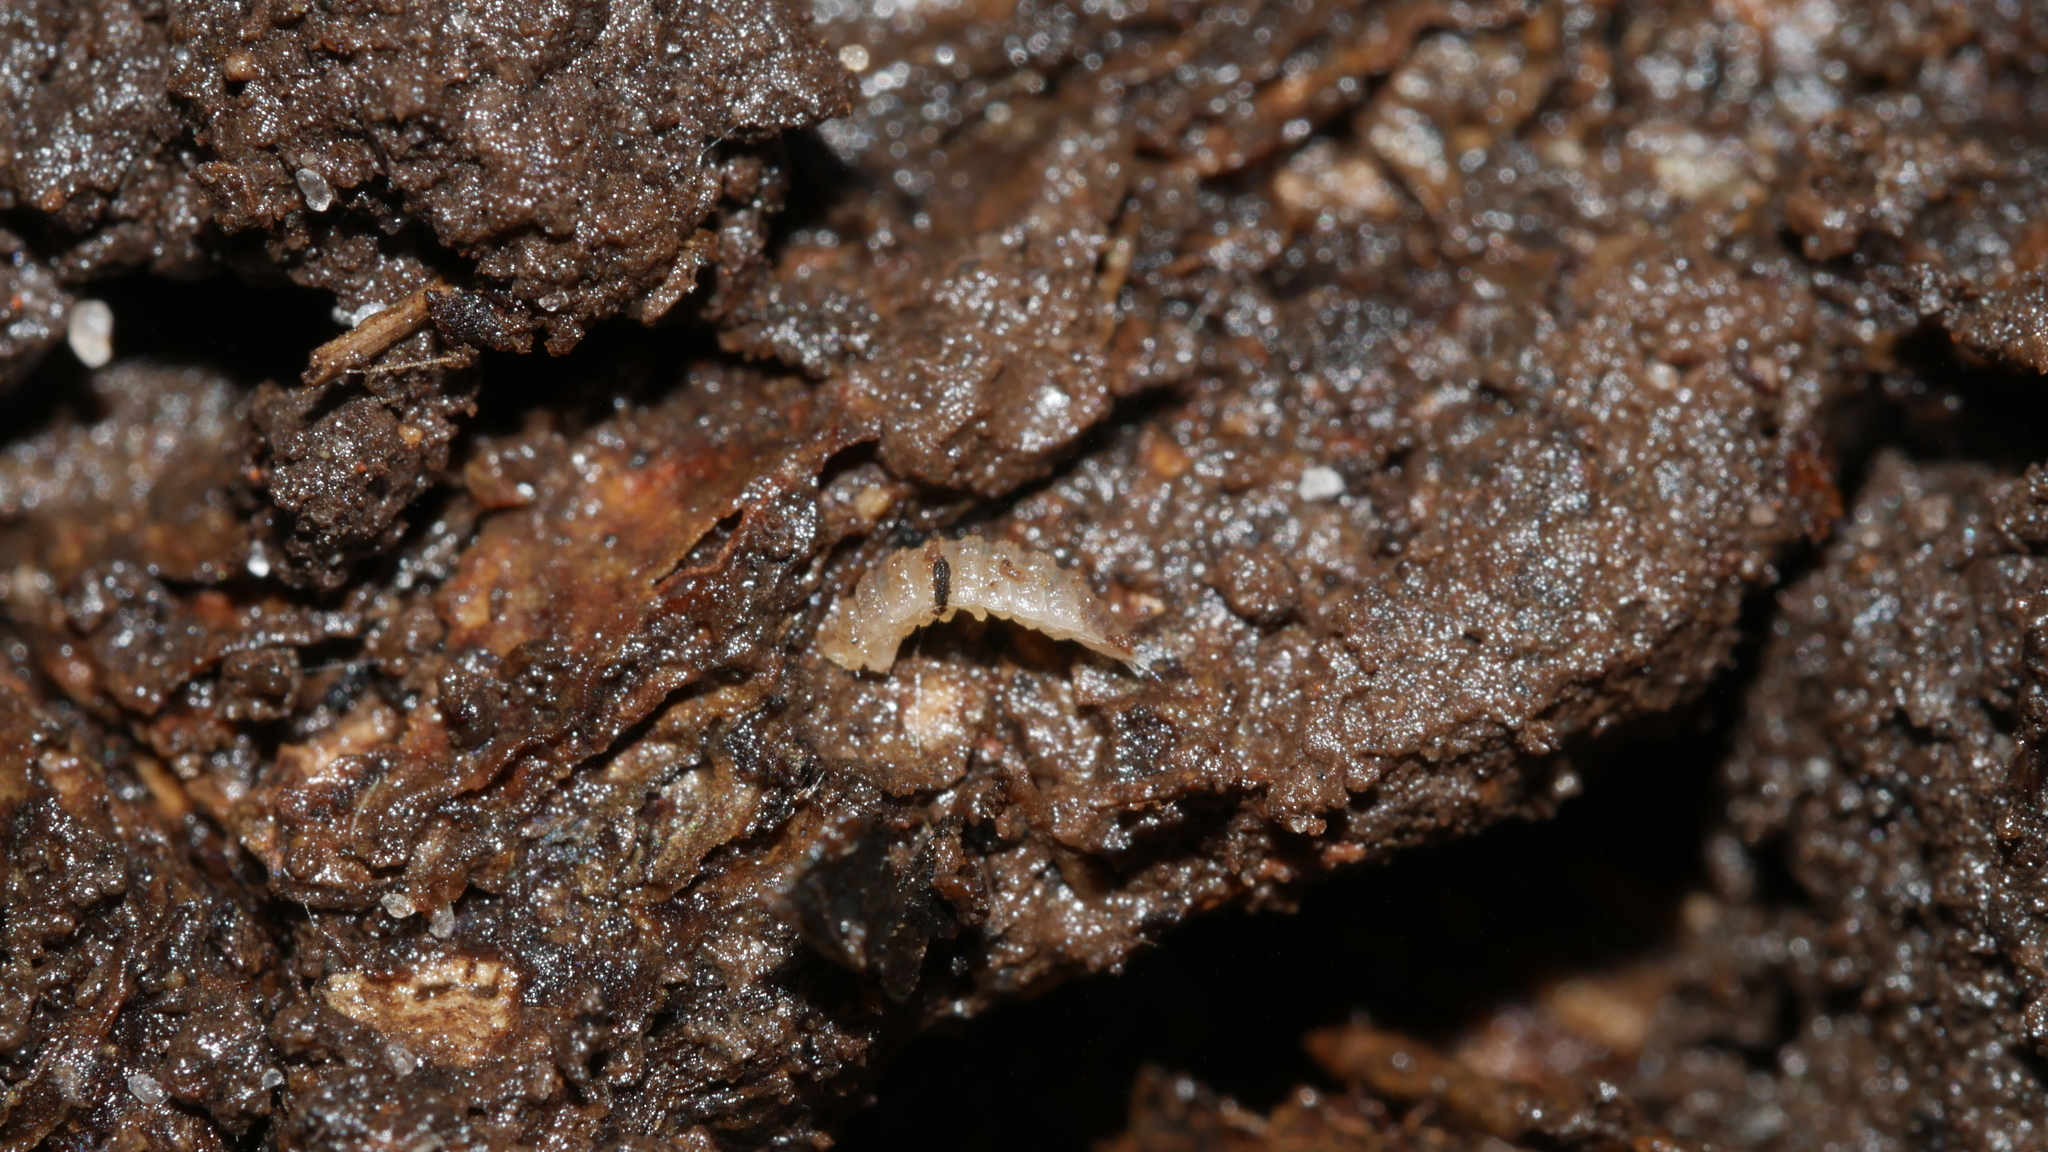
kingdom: Animalia
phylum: Arthropoda
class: Malacostraca
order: Isopoda
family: Trichoniscidae
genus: Haplophthalmus
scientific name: Haplophthalmus danicus
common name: Pillbug
